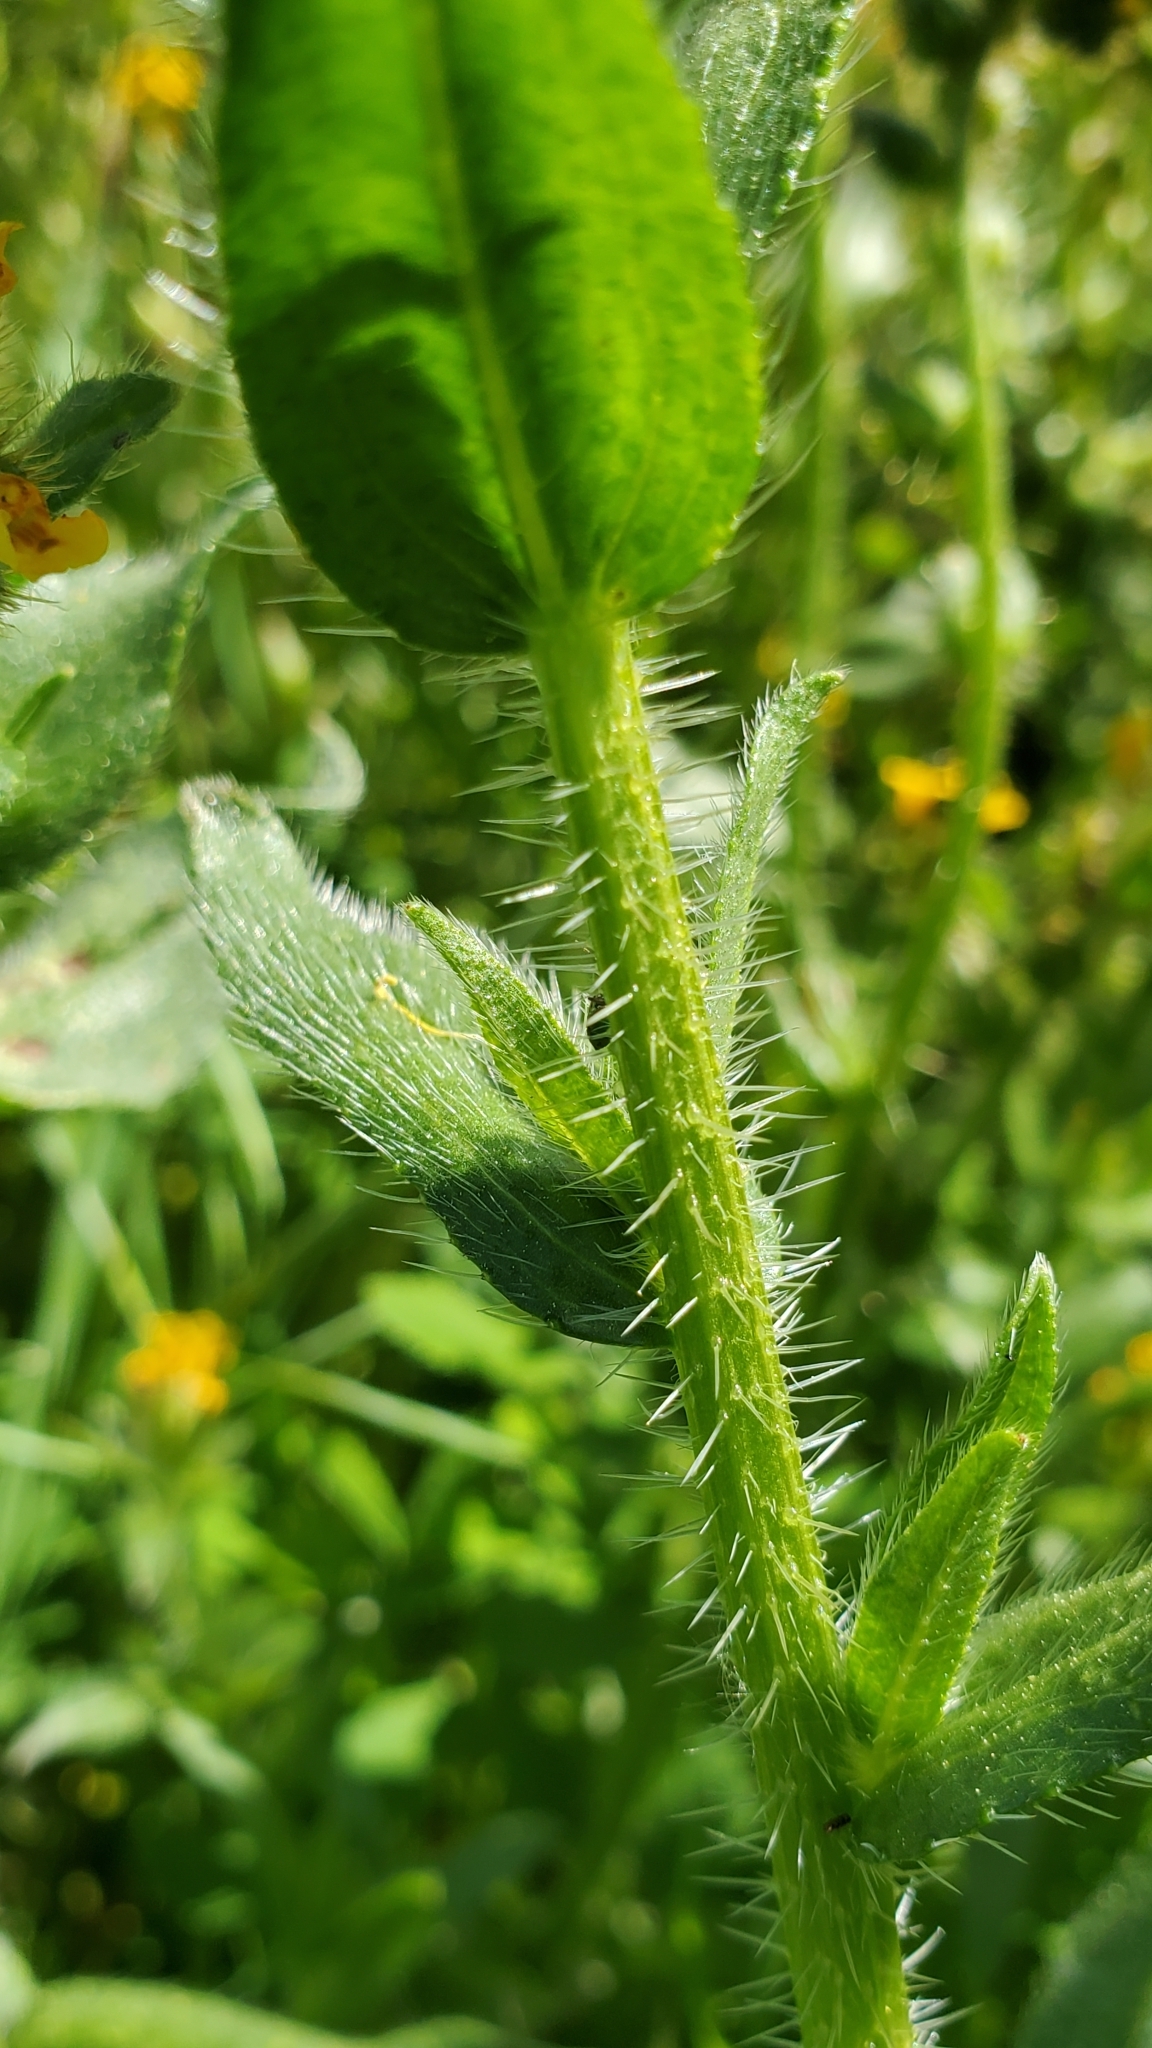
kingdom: Plantae
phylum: Tracheophyta
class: Magnoliopsida
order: Boraginales
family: Boraginaceae
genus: Amsinckia
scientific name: Amsinckia menziesii
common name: Menzies' fiddleneck
